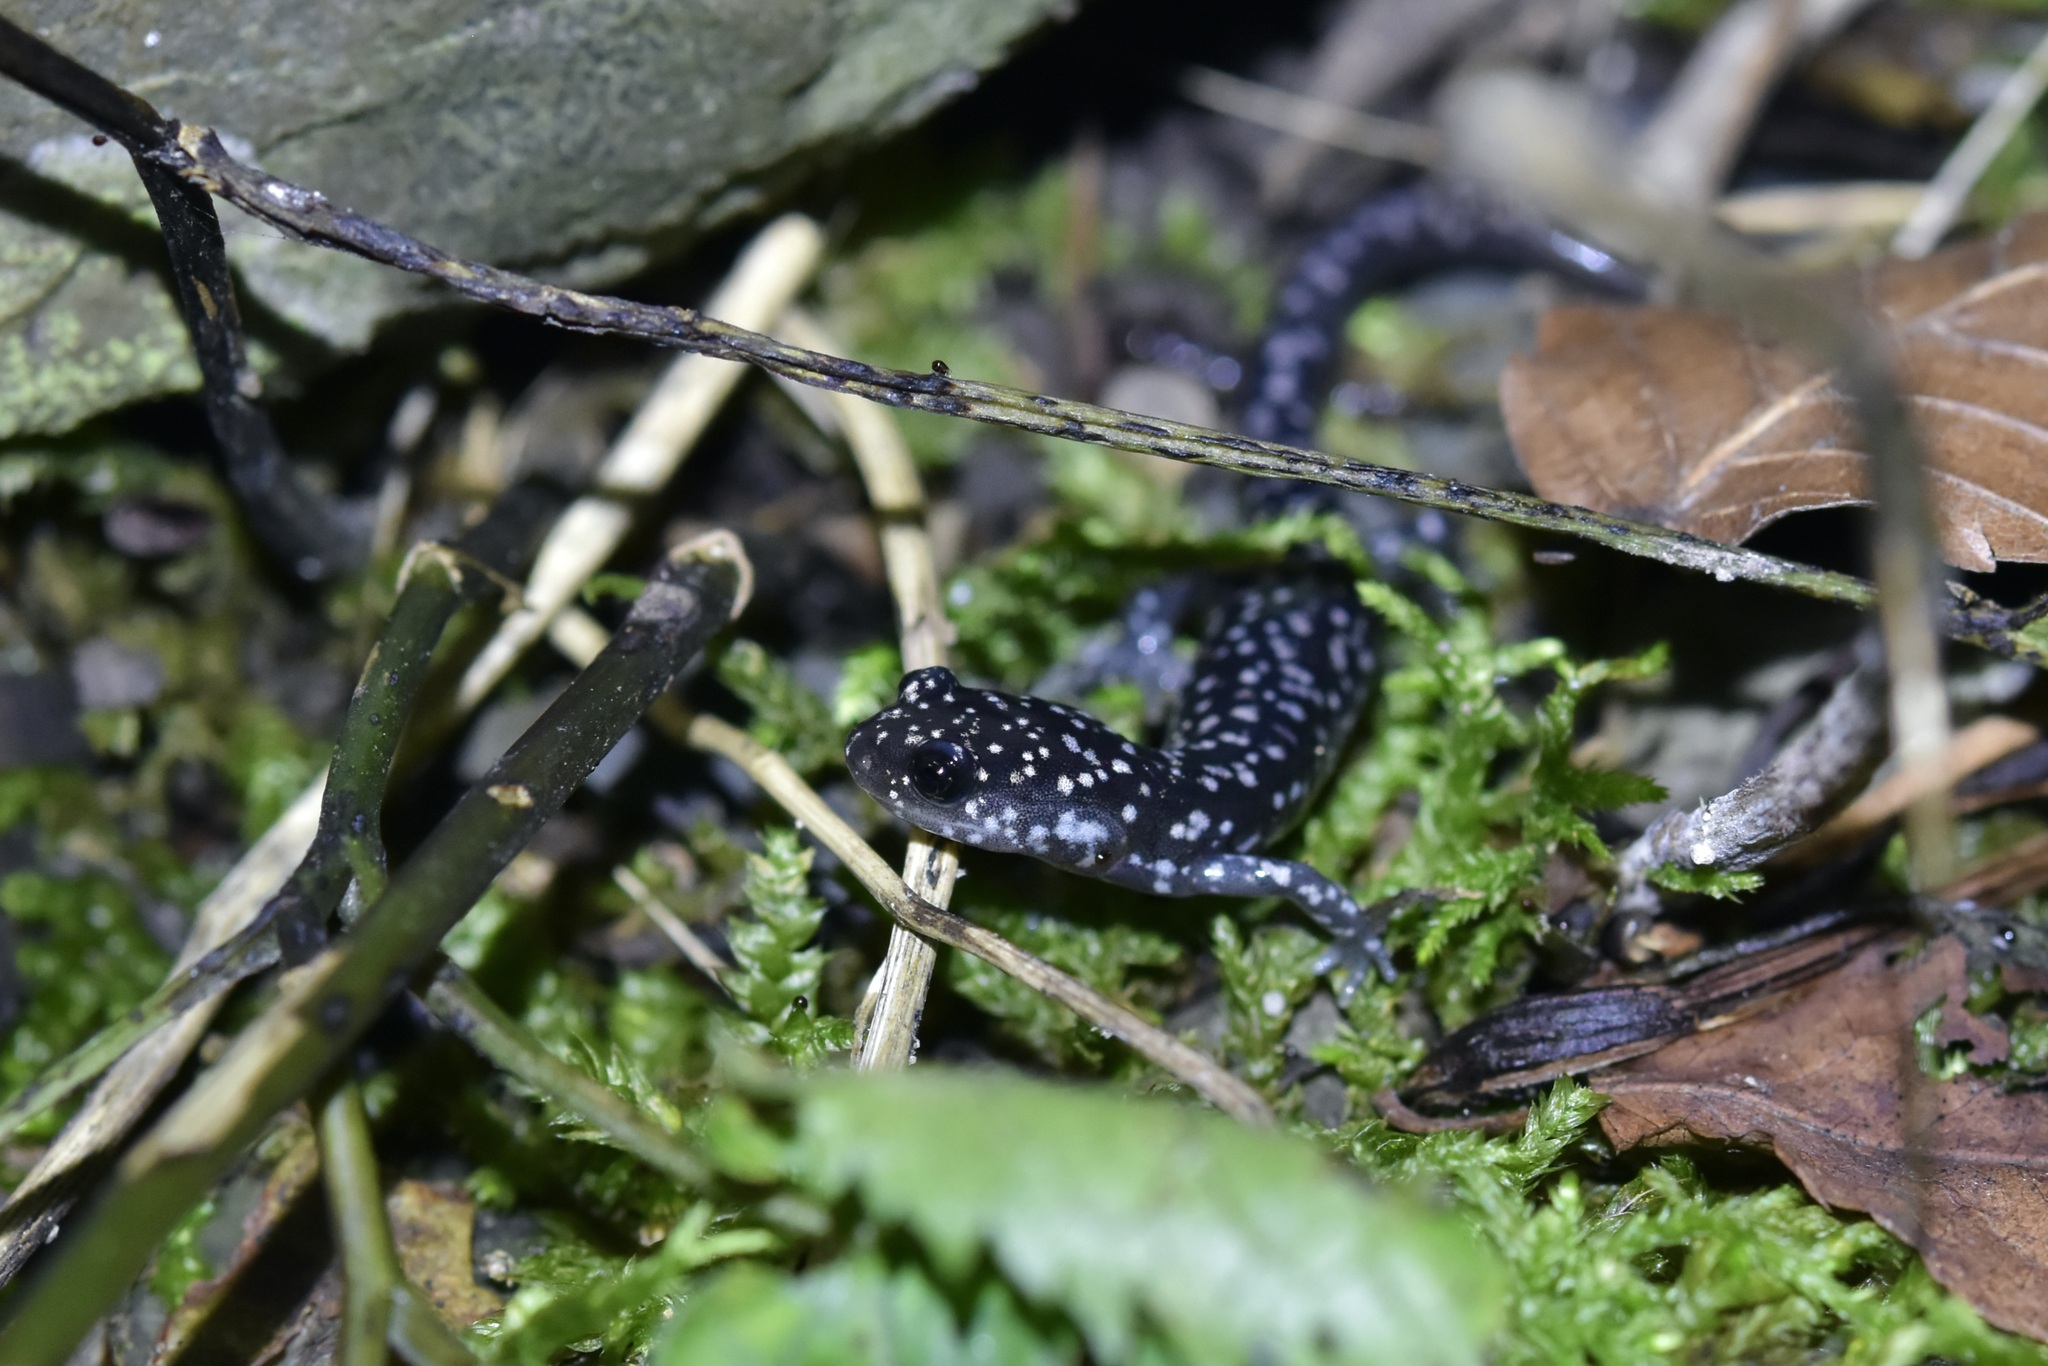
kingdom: Animalia
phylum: Chordata
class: Amphibia
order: Caudata
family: Plethodontidae
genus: Plethodon
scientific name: Plethodon glutinosus
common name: Northern slimy salamander
